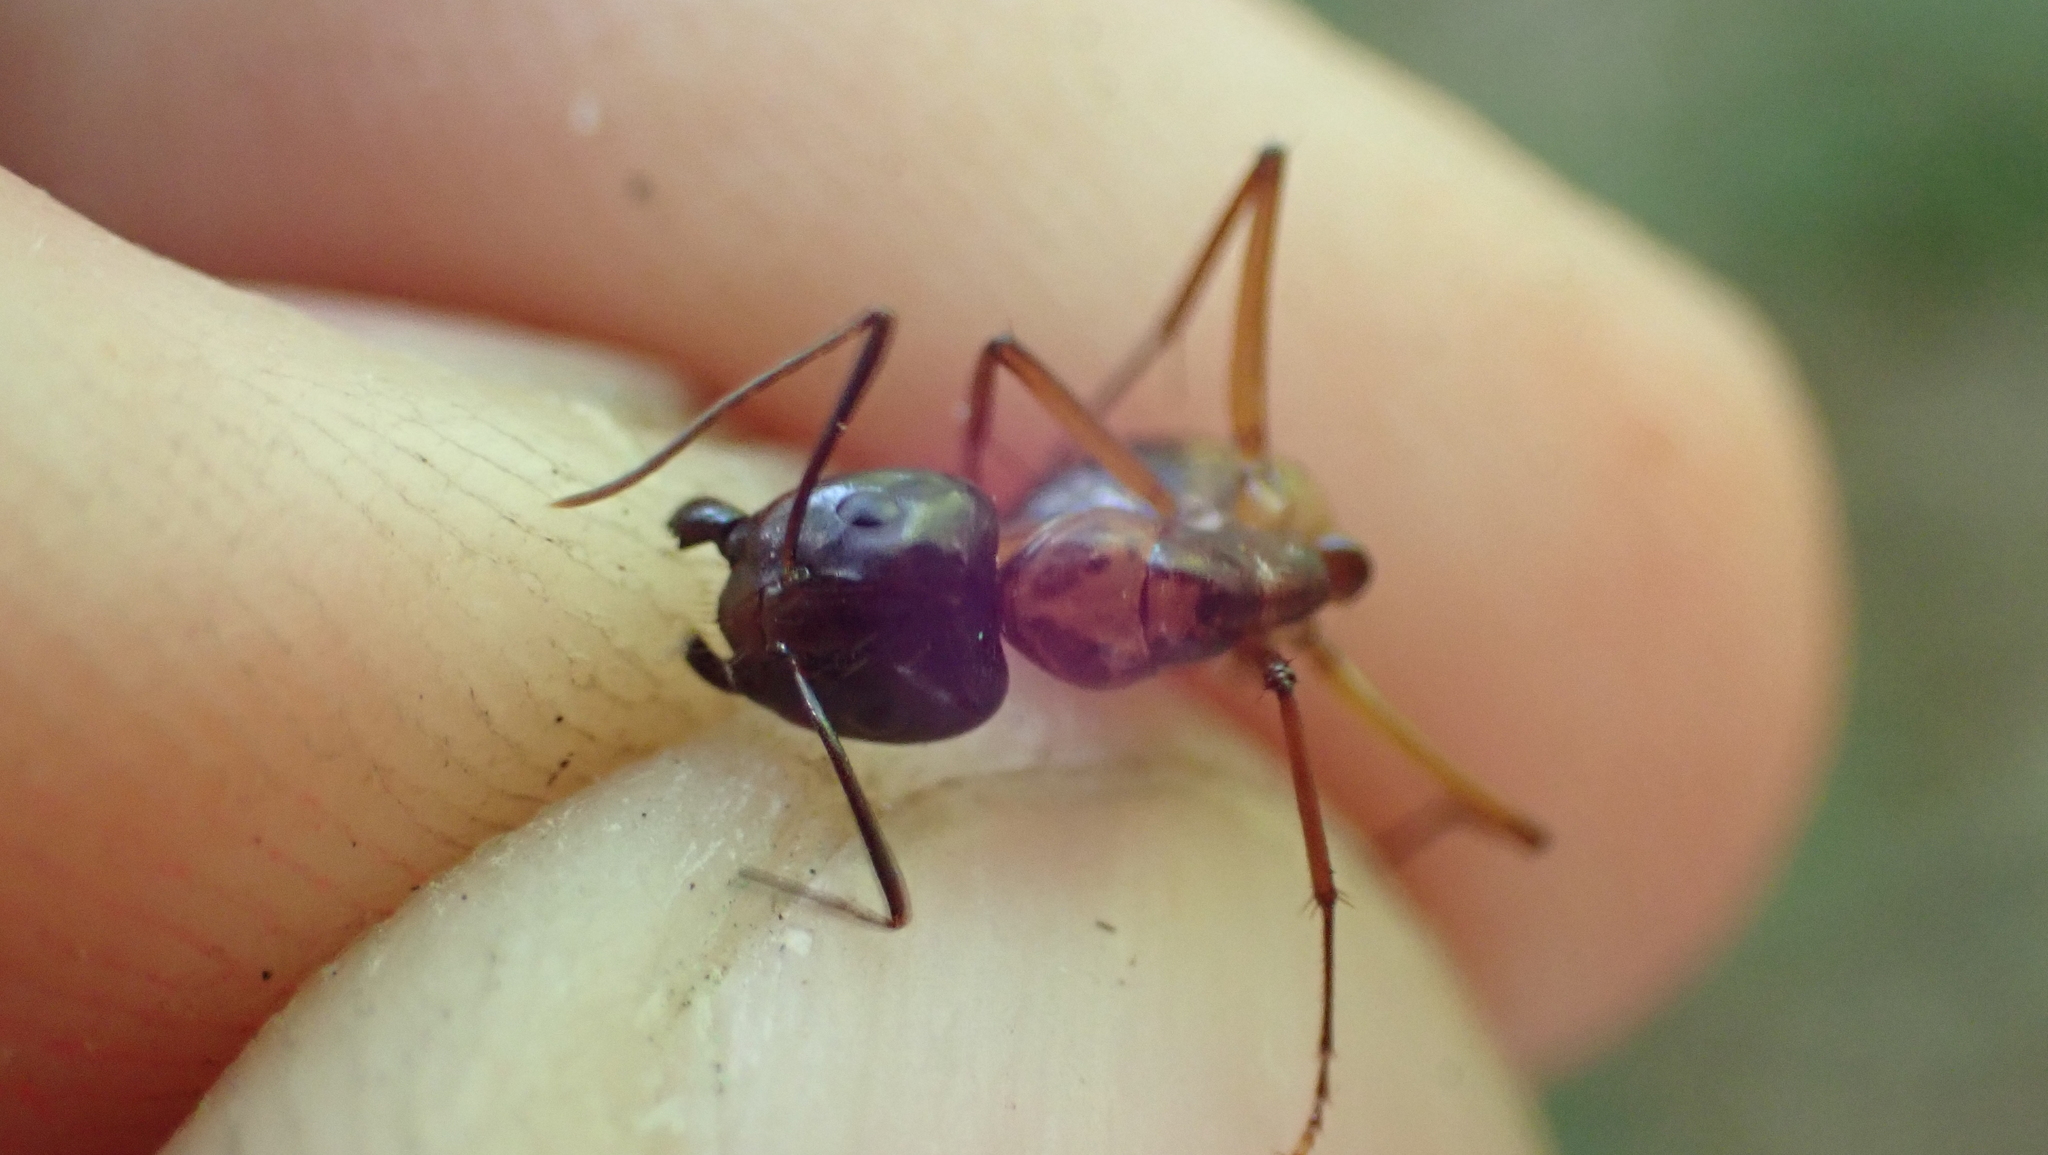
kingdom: Animalia
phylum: Arthropoda
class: Insecta
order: Hymenoptera
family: Formicidae
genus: Camponotus
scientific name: Camponotus americanus
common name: American carpenter ant
